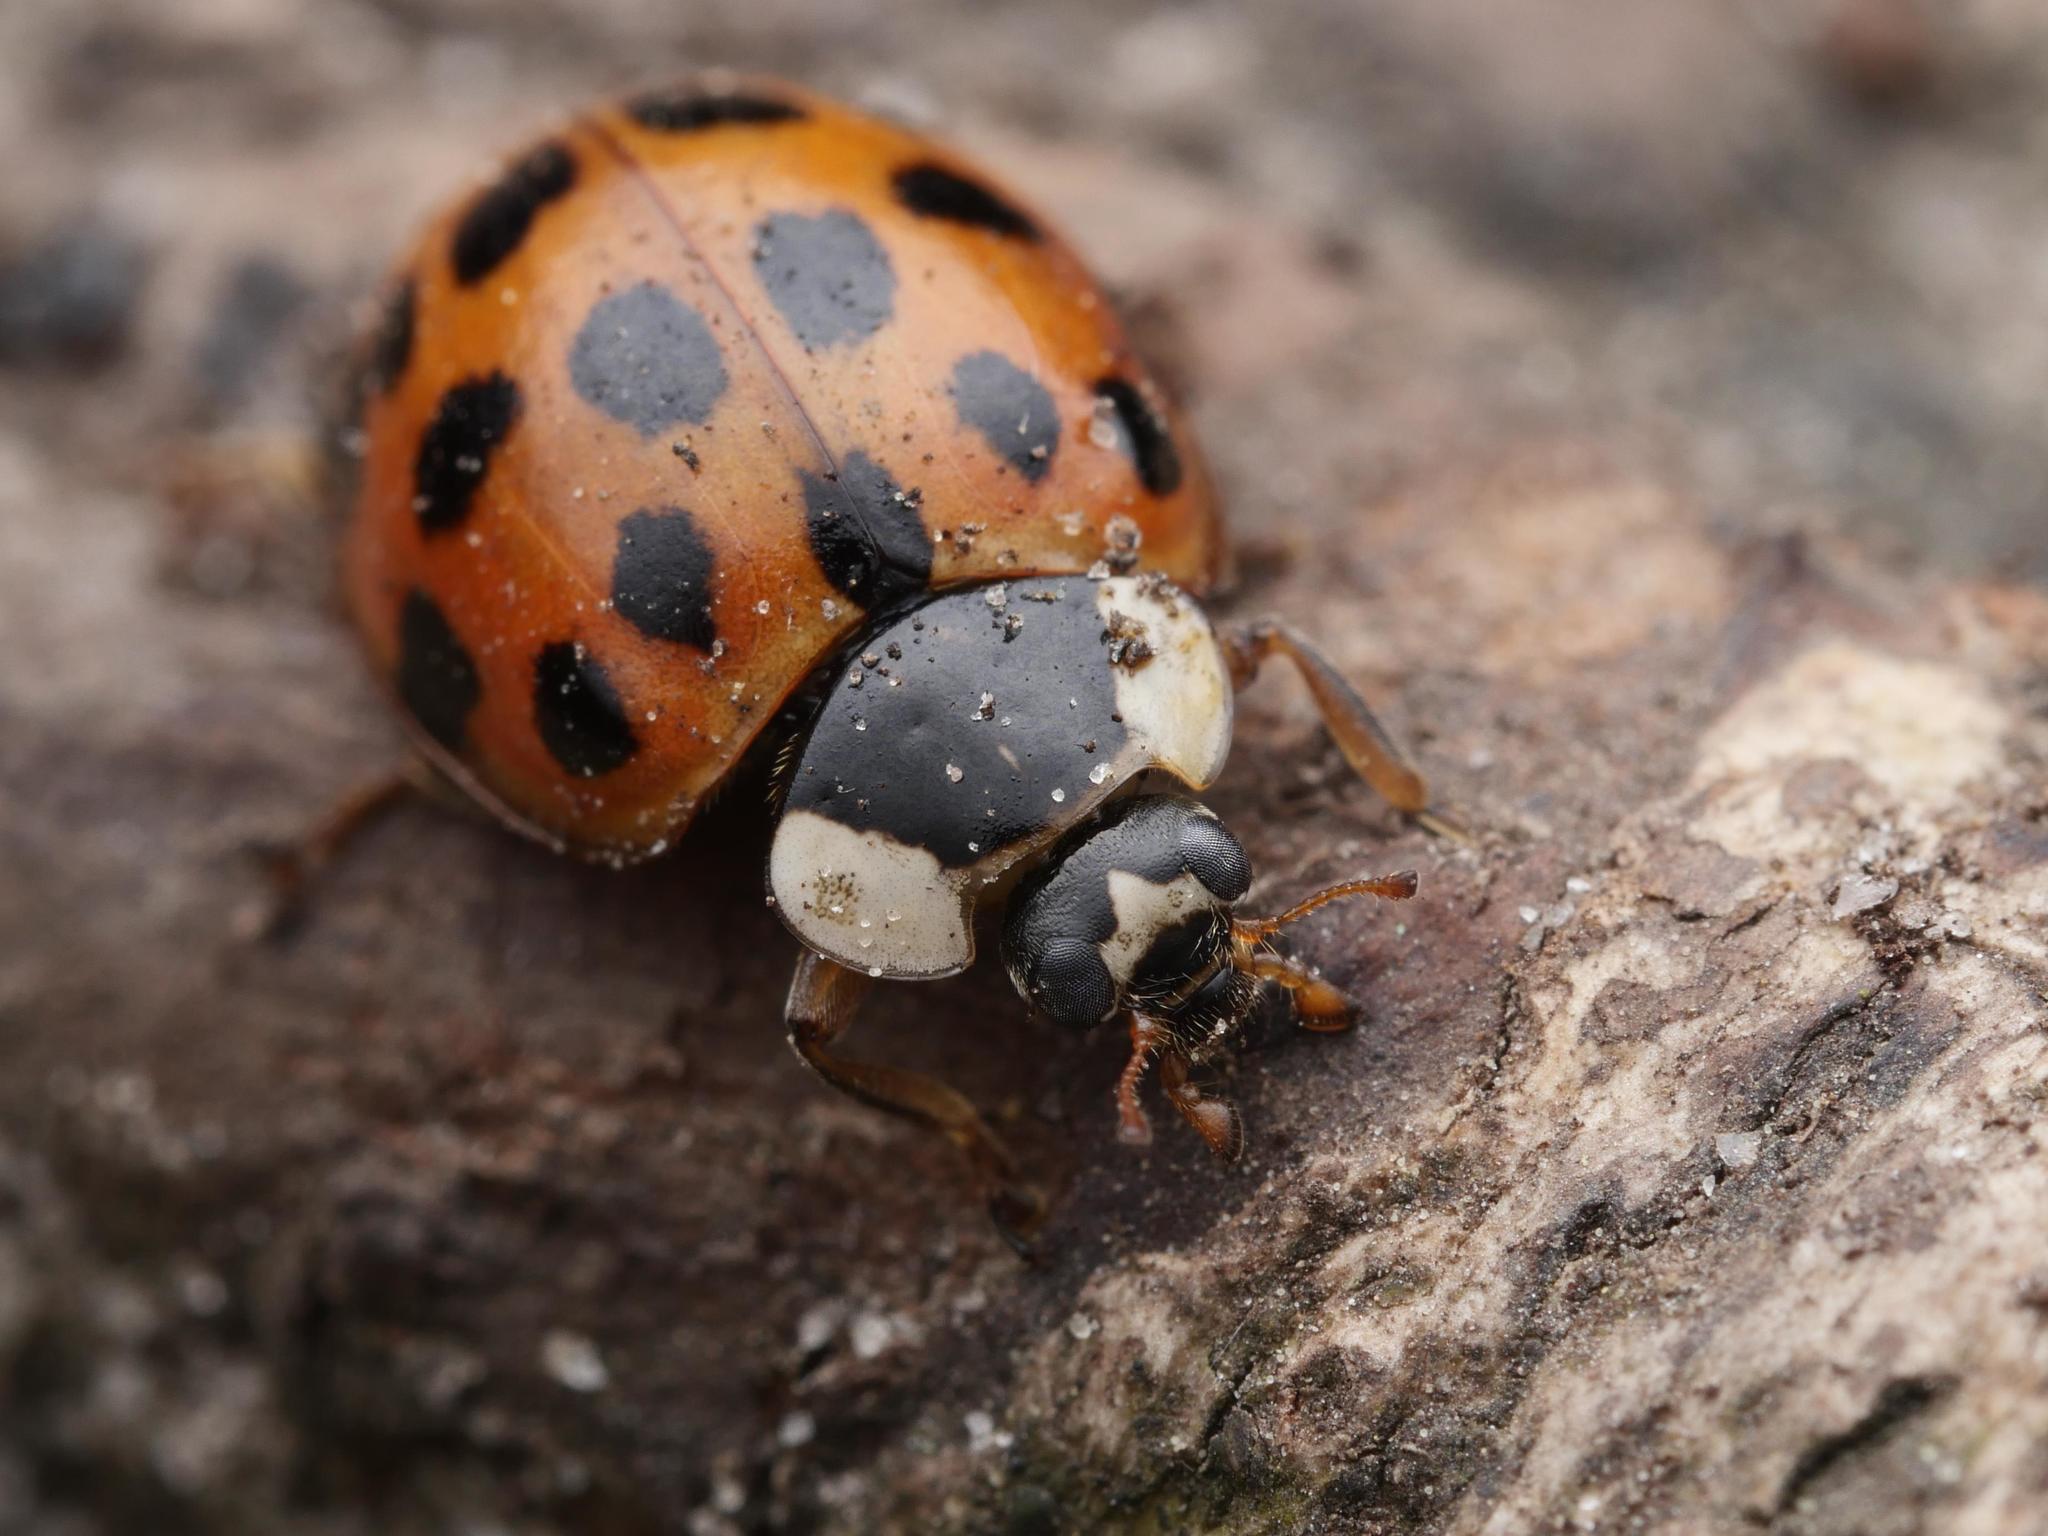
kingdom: Animalia
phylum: Arthropoda
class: Insecta
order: Coleoptera
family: Coccinellidae
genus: Harmonia
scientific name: Harmonia axyridis
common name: Harlequin ladybird
